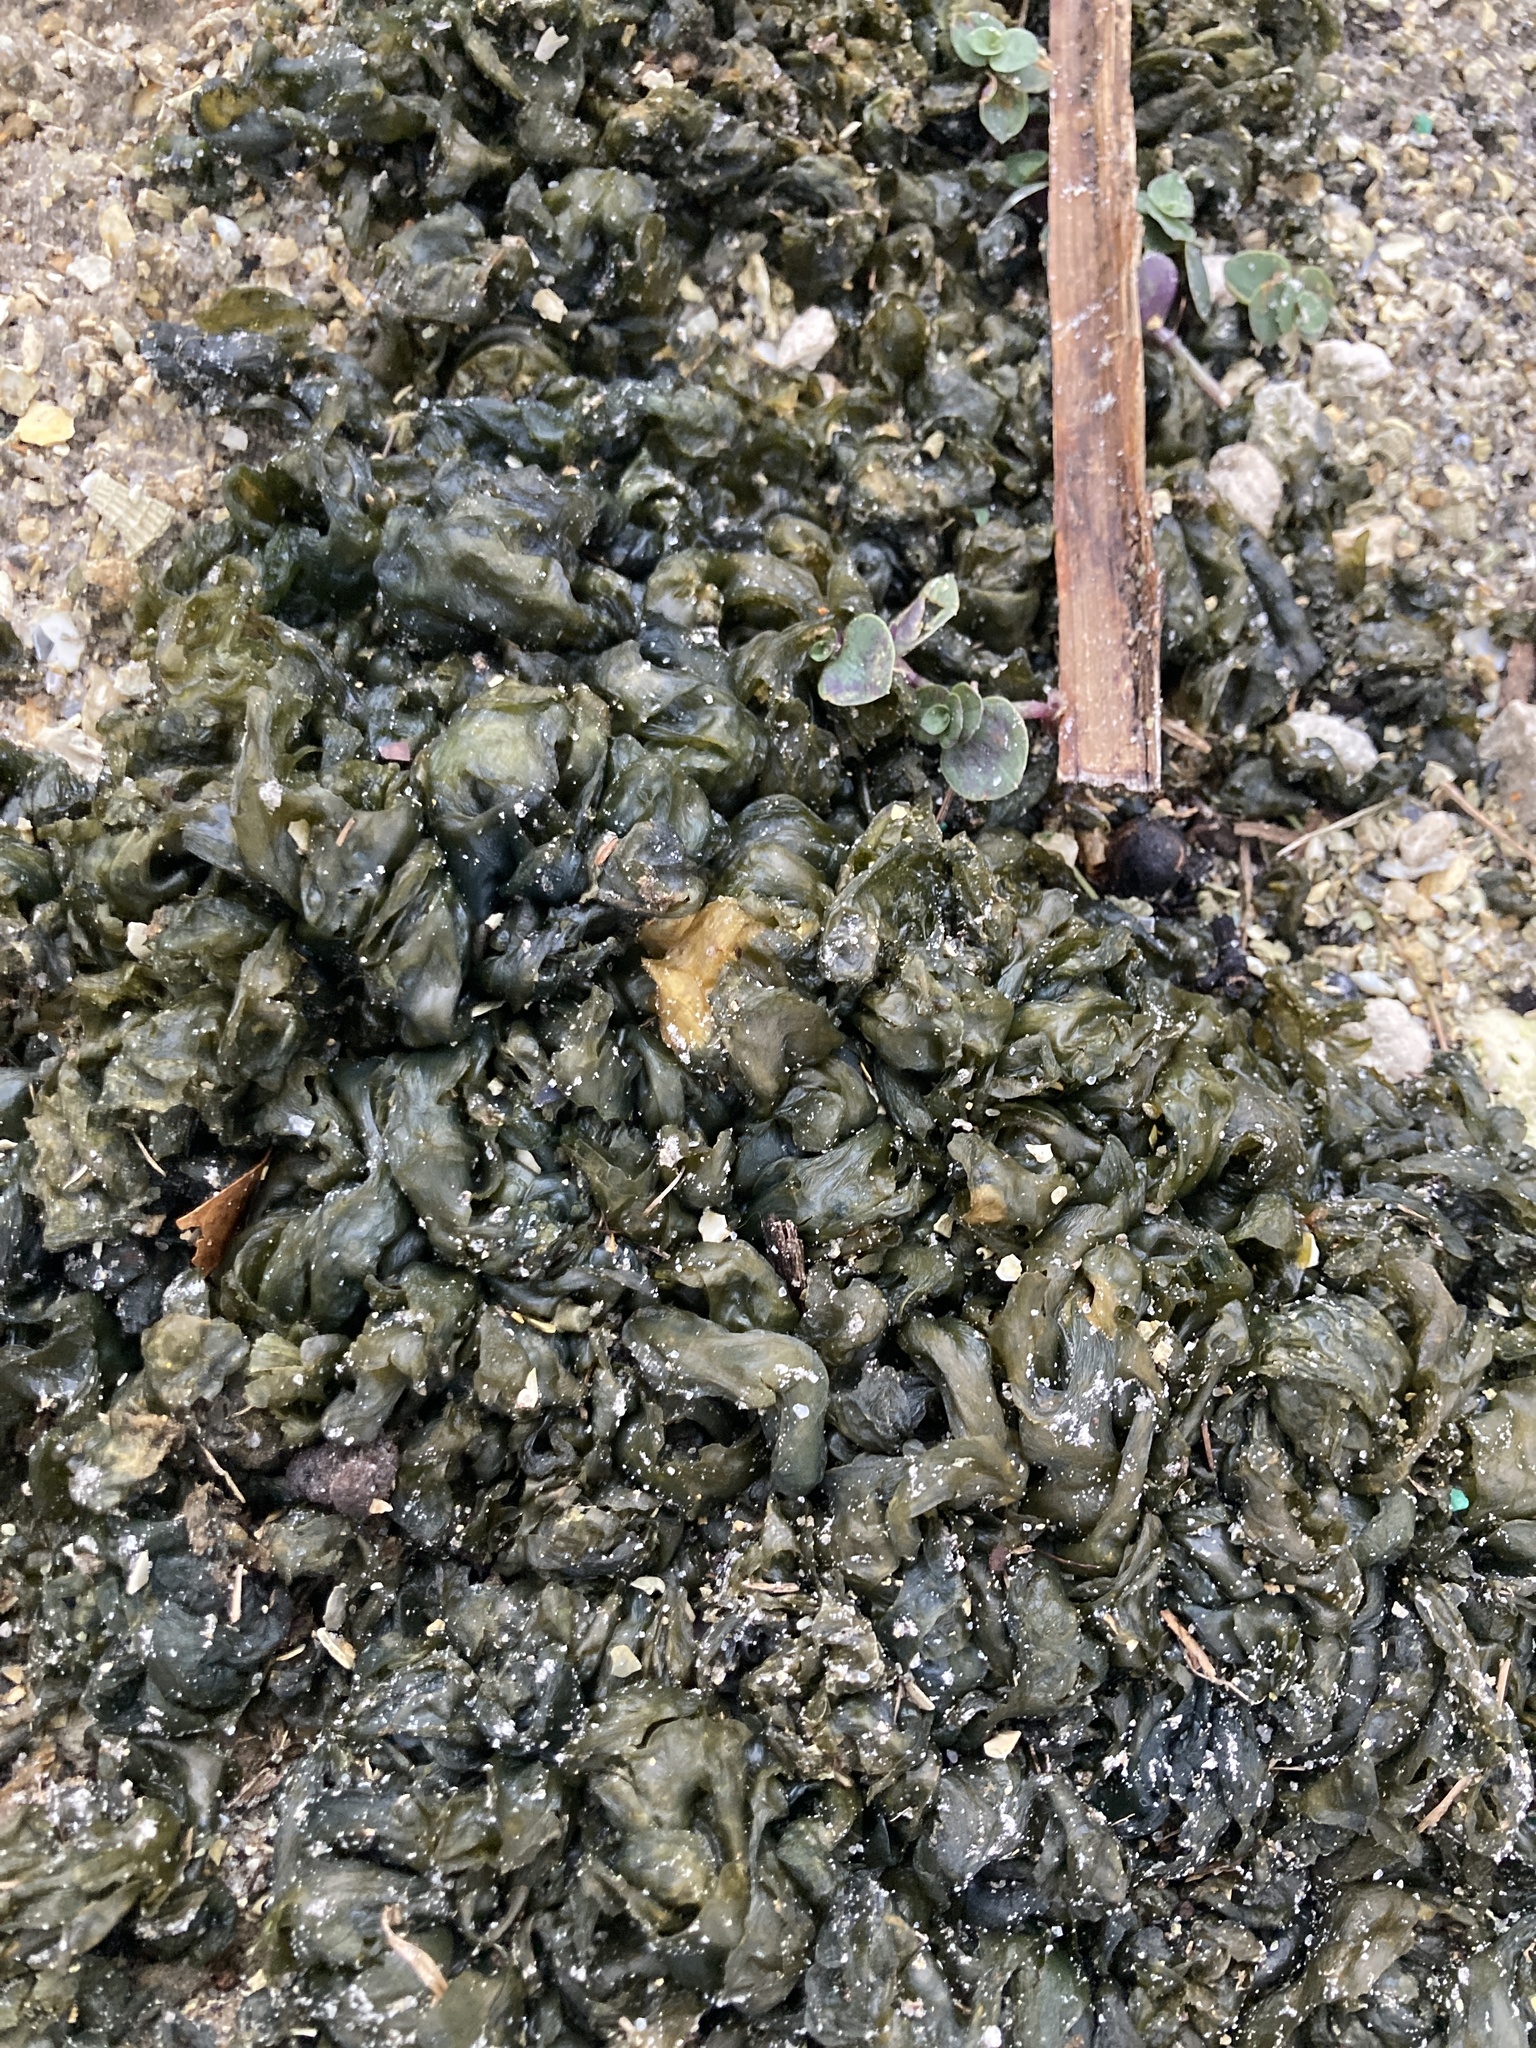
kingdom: Bacteria
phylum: Cyanobacteria
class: Cyanobacteriia
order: Cyanobacteriales
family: Nostocaceae
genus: Nostoc
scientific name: Nostoc commune
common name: Star jelly
